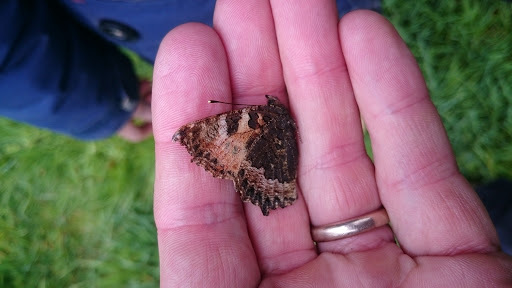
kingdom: Animalia
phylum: Arthropoda
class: Insecta
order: Lepidoptera
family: Nymphalidae
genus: Aglais
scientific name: Aglais urticae
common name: Small tortoiseshell
